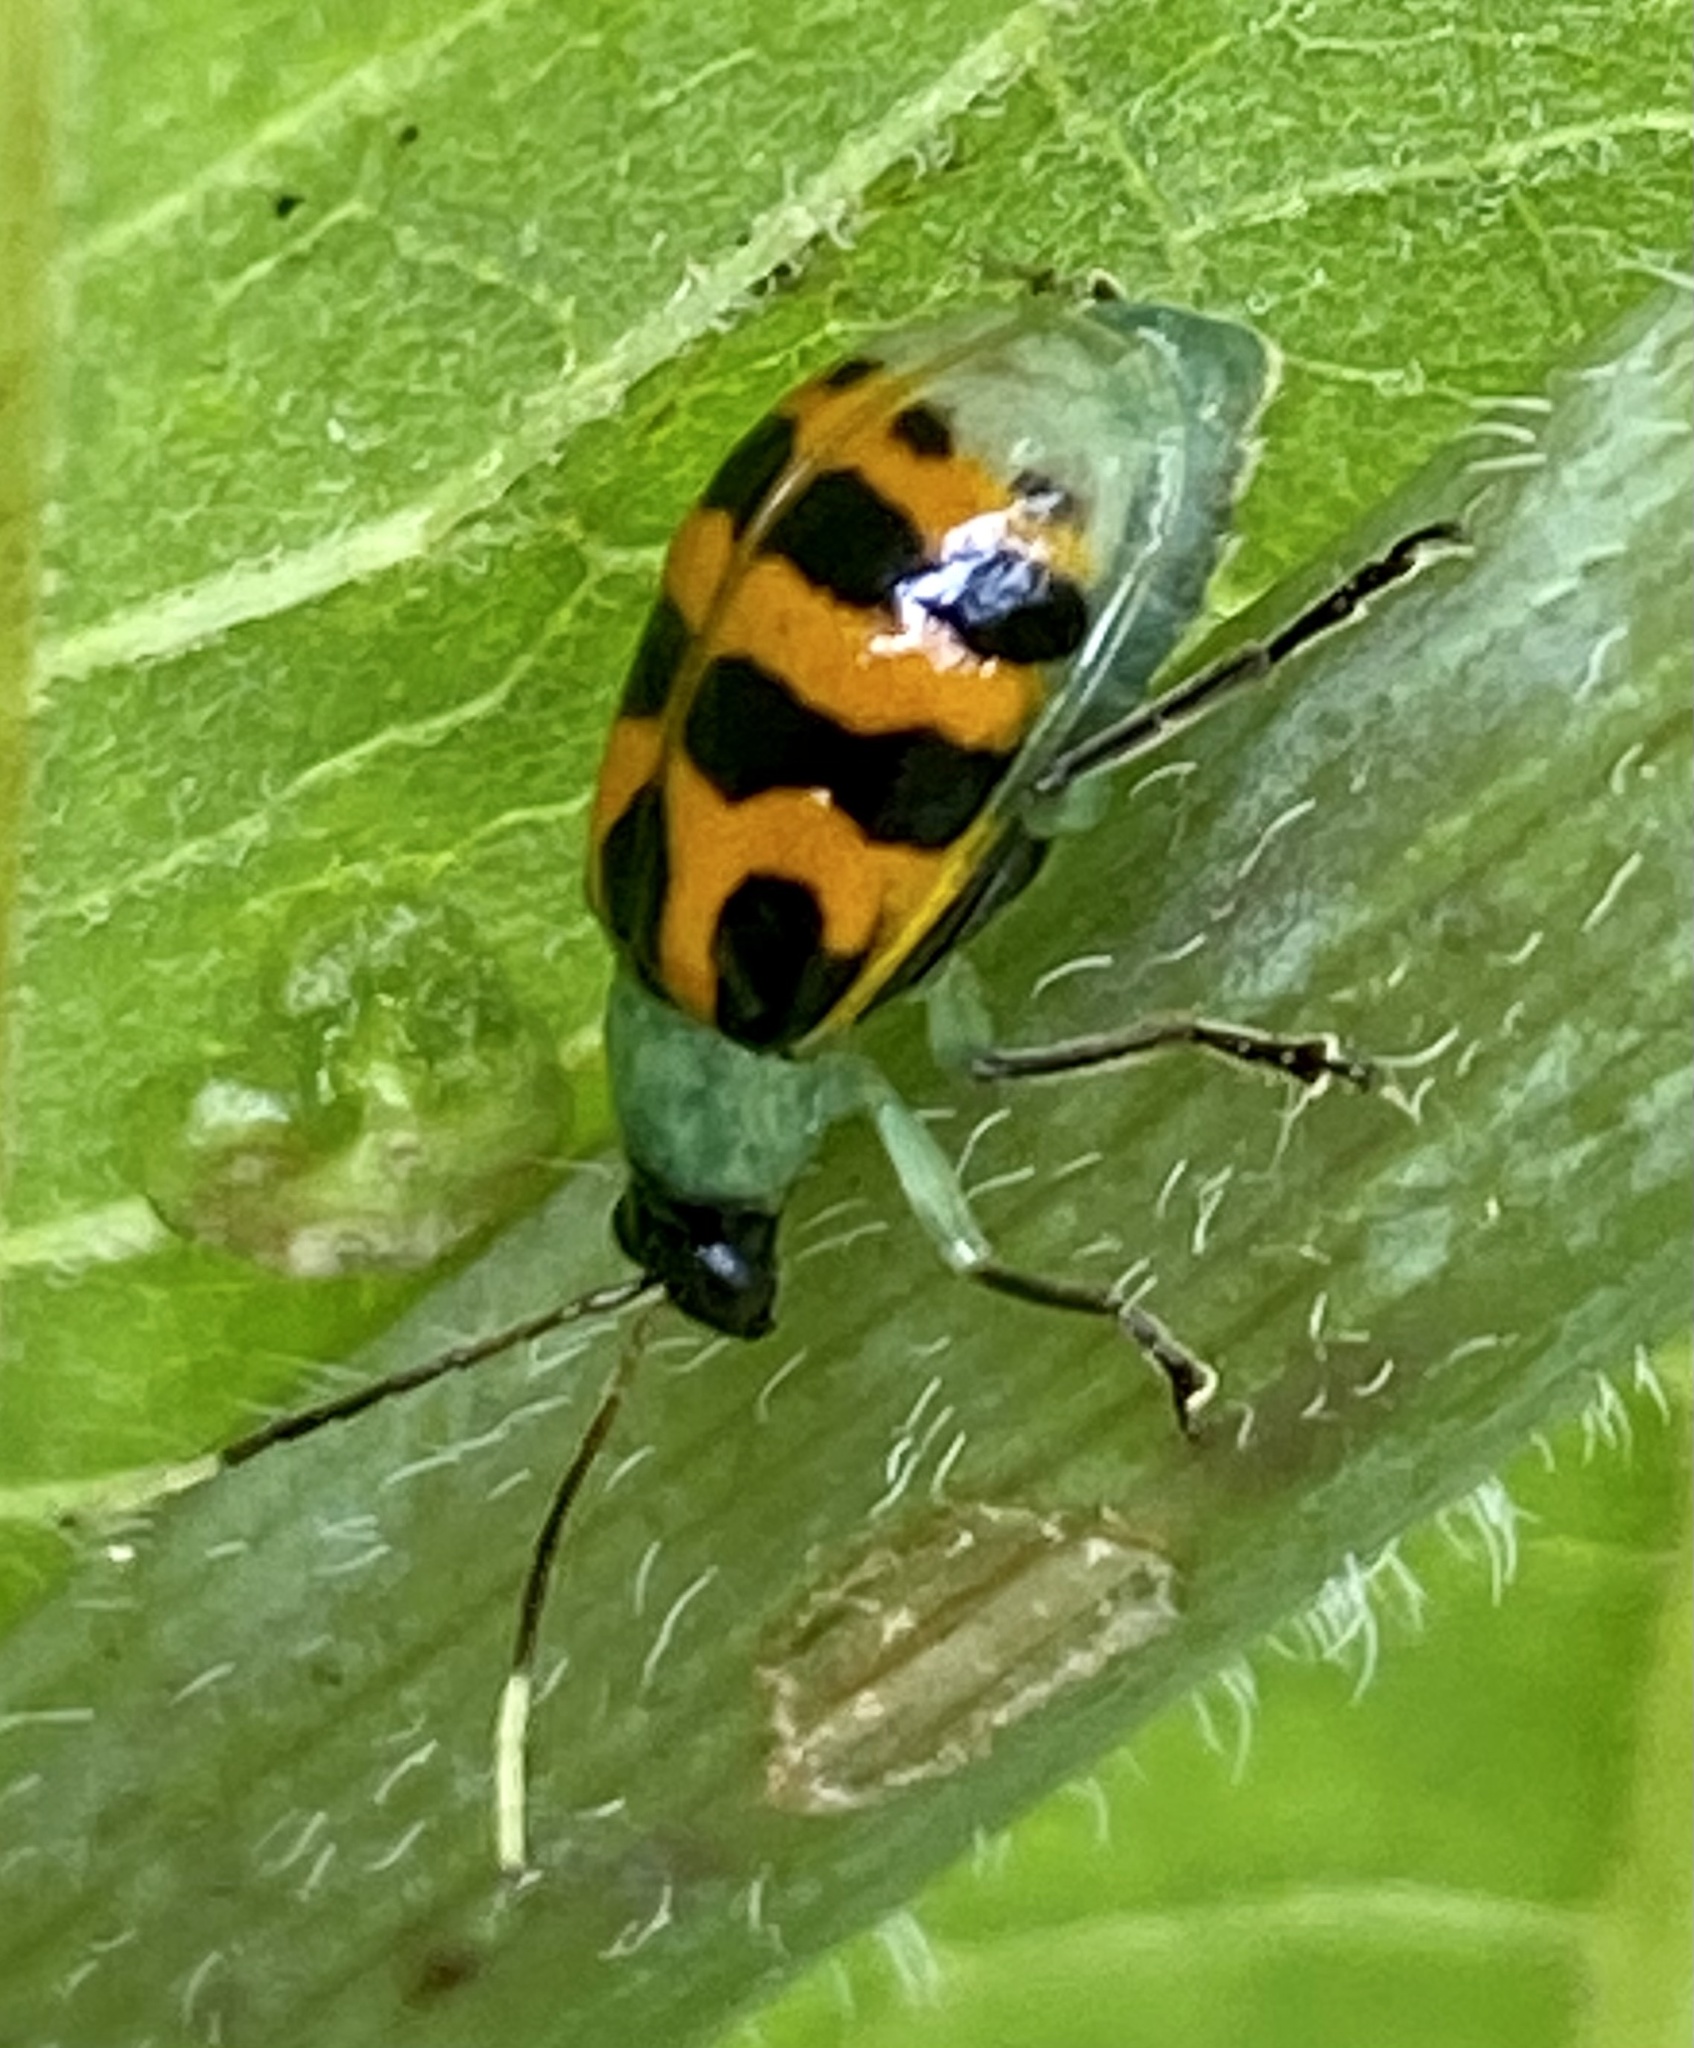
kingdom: Animalia
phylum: Arthropoda
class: Insecta
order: Coleoptera
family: Chrysomelidae
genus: Diabrotica
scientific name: Diabrotica limitata
